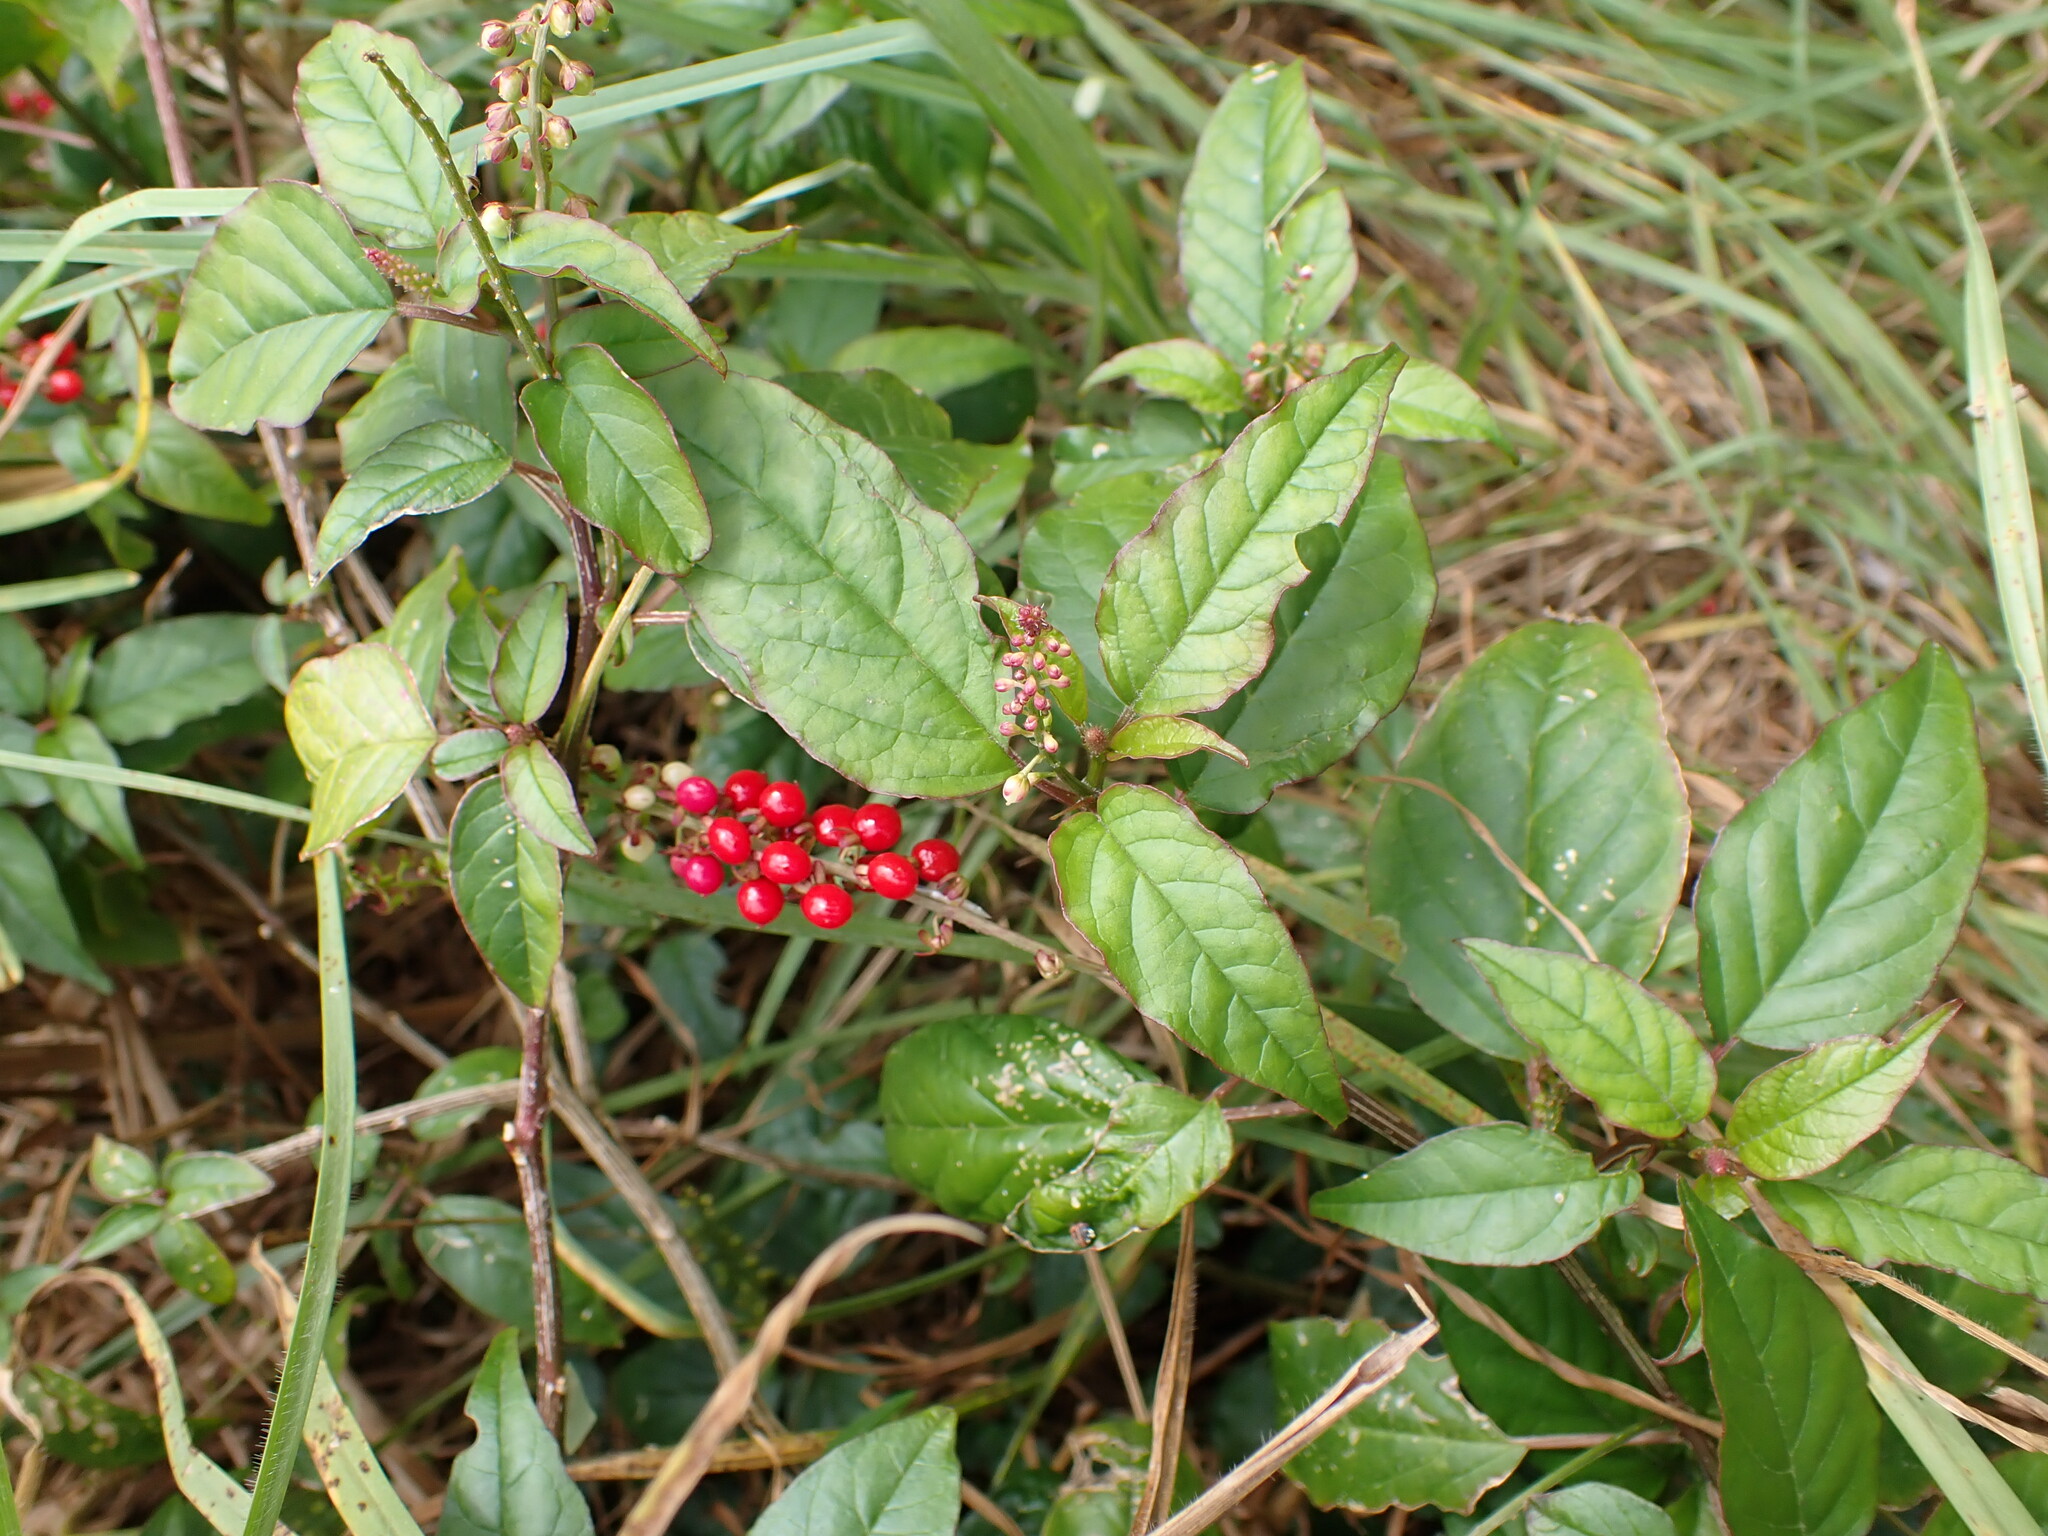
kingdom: Plantae
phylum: Tracheophyta
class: Magnoliopsida
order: Caryophyllales
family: Phytolaccaceae
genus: Rivina
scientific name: Rivina humilis
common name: Rougeplant
